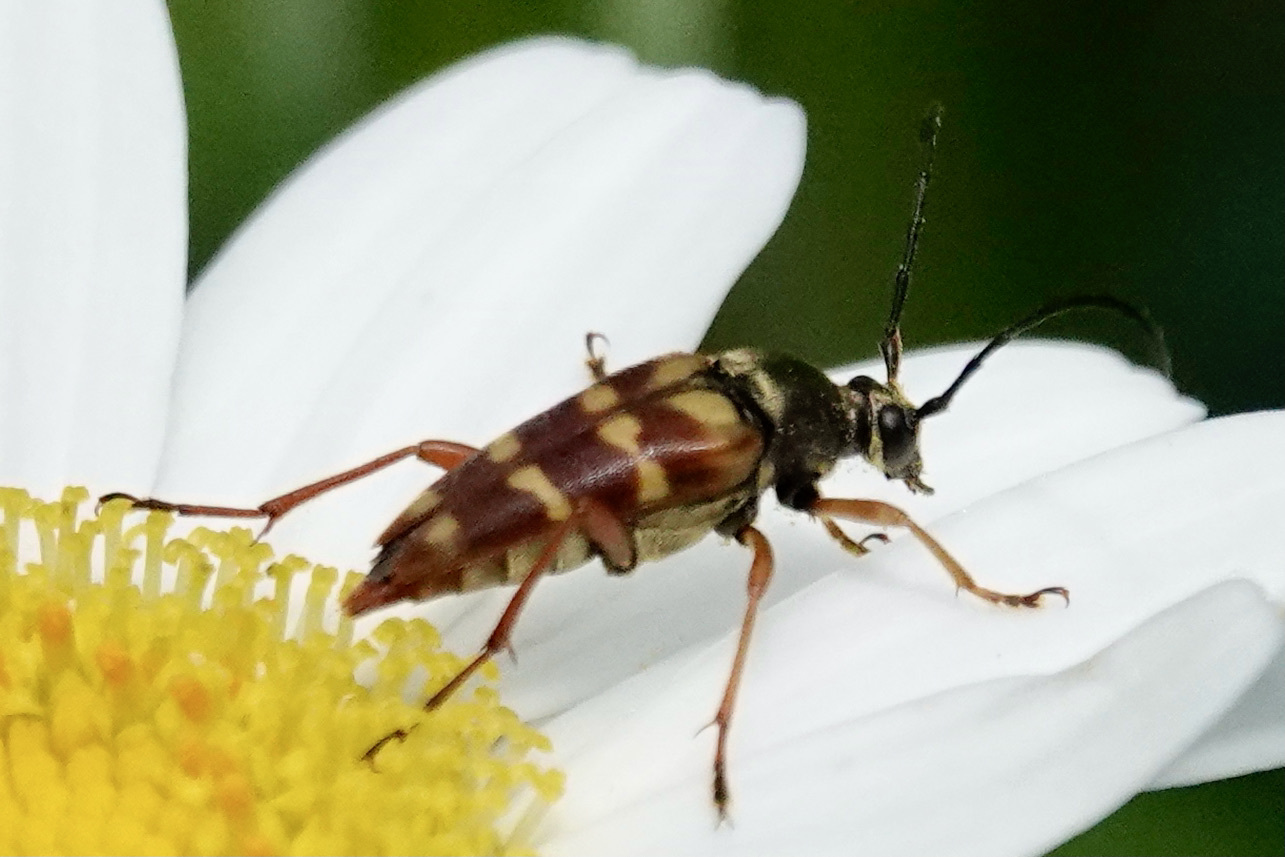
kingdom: Animalia
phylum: Arthropoda
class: Insecta
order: Coleoptera
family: Cerambycidae
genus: Typocerus
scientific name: Typocerus velutinus
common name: Banded longhorn beetle
